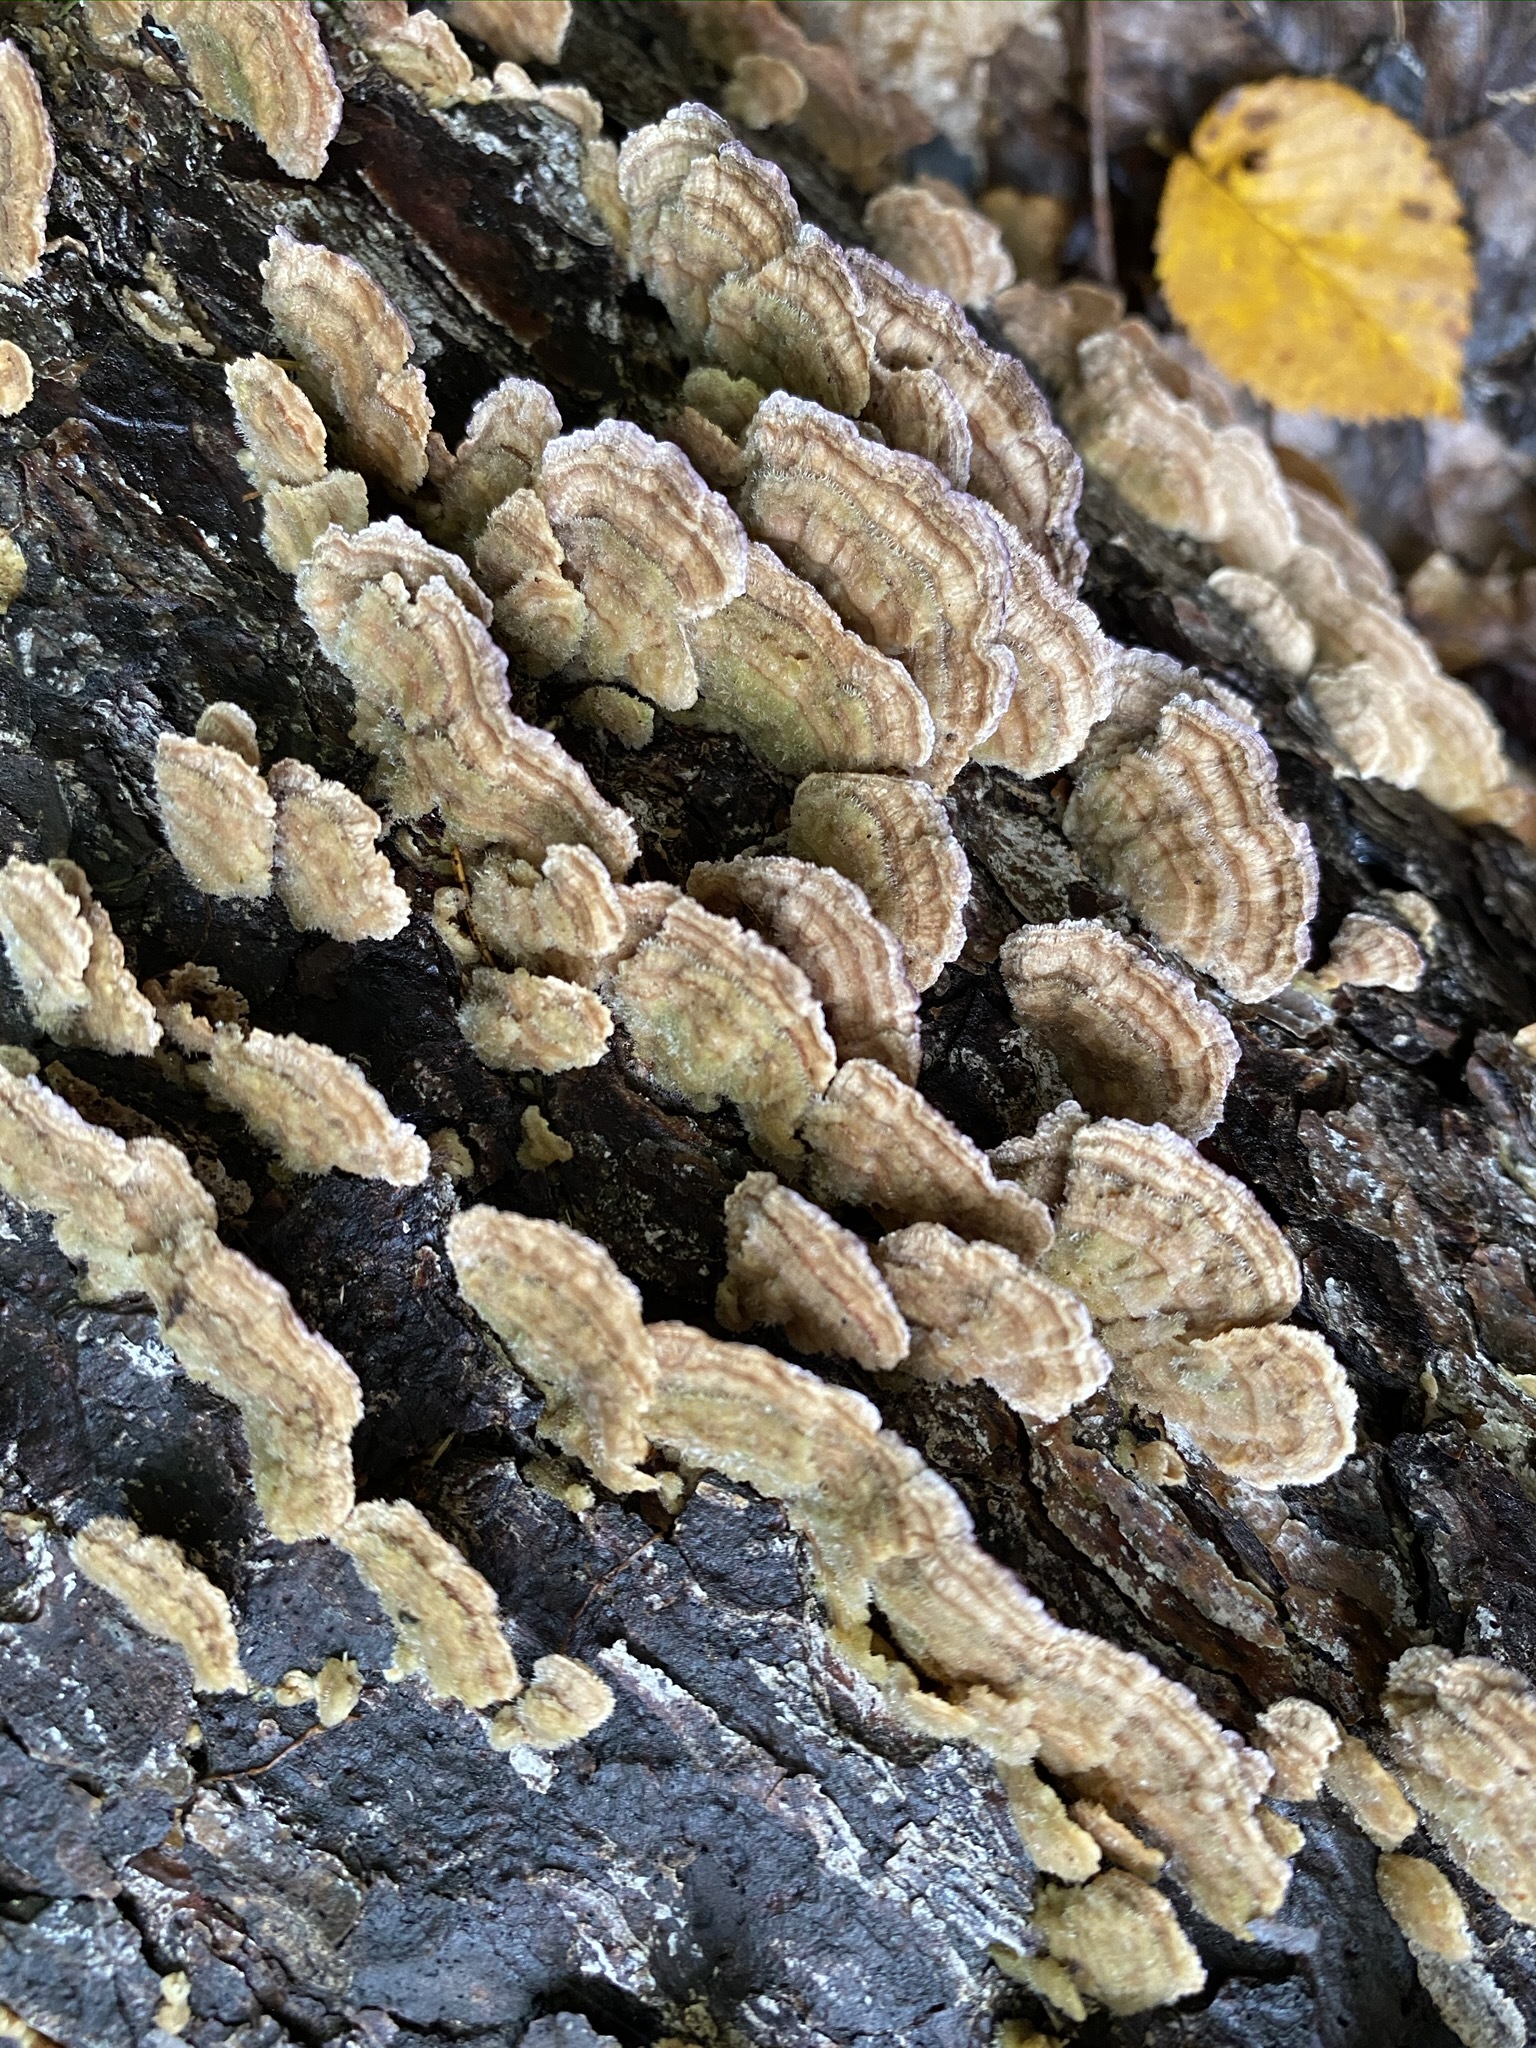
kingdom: Fungi
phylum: Basidiomycota
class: Agaricomycetes
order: Hymenochaetales
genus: Trichaptum
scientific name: Trichaptum abietinum
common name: Purplepore bracket
